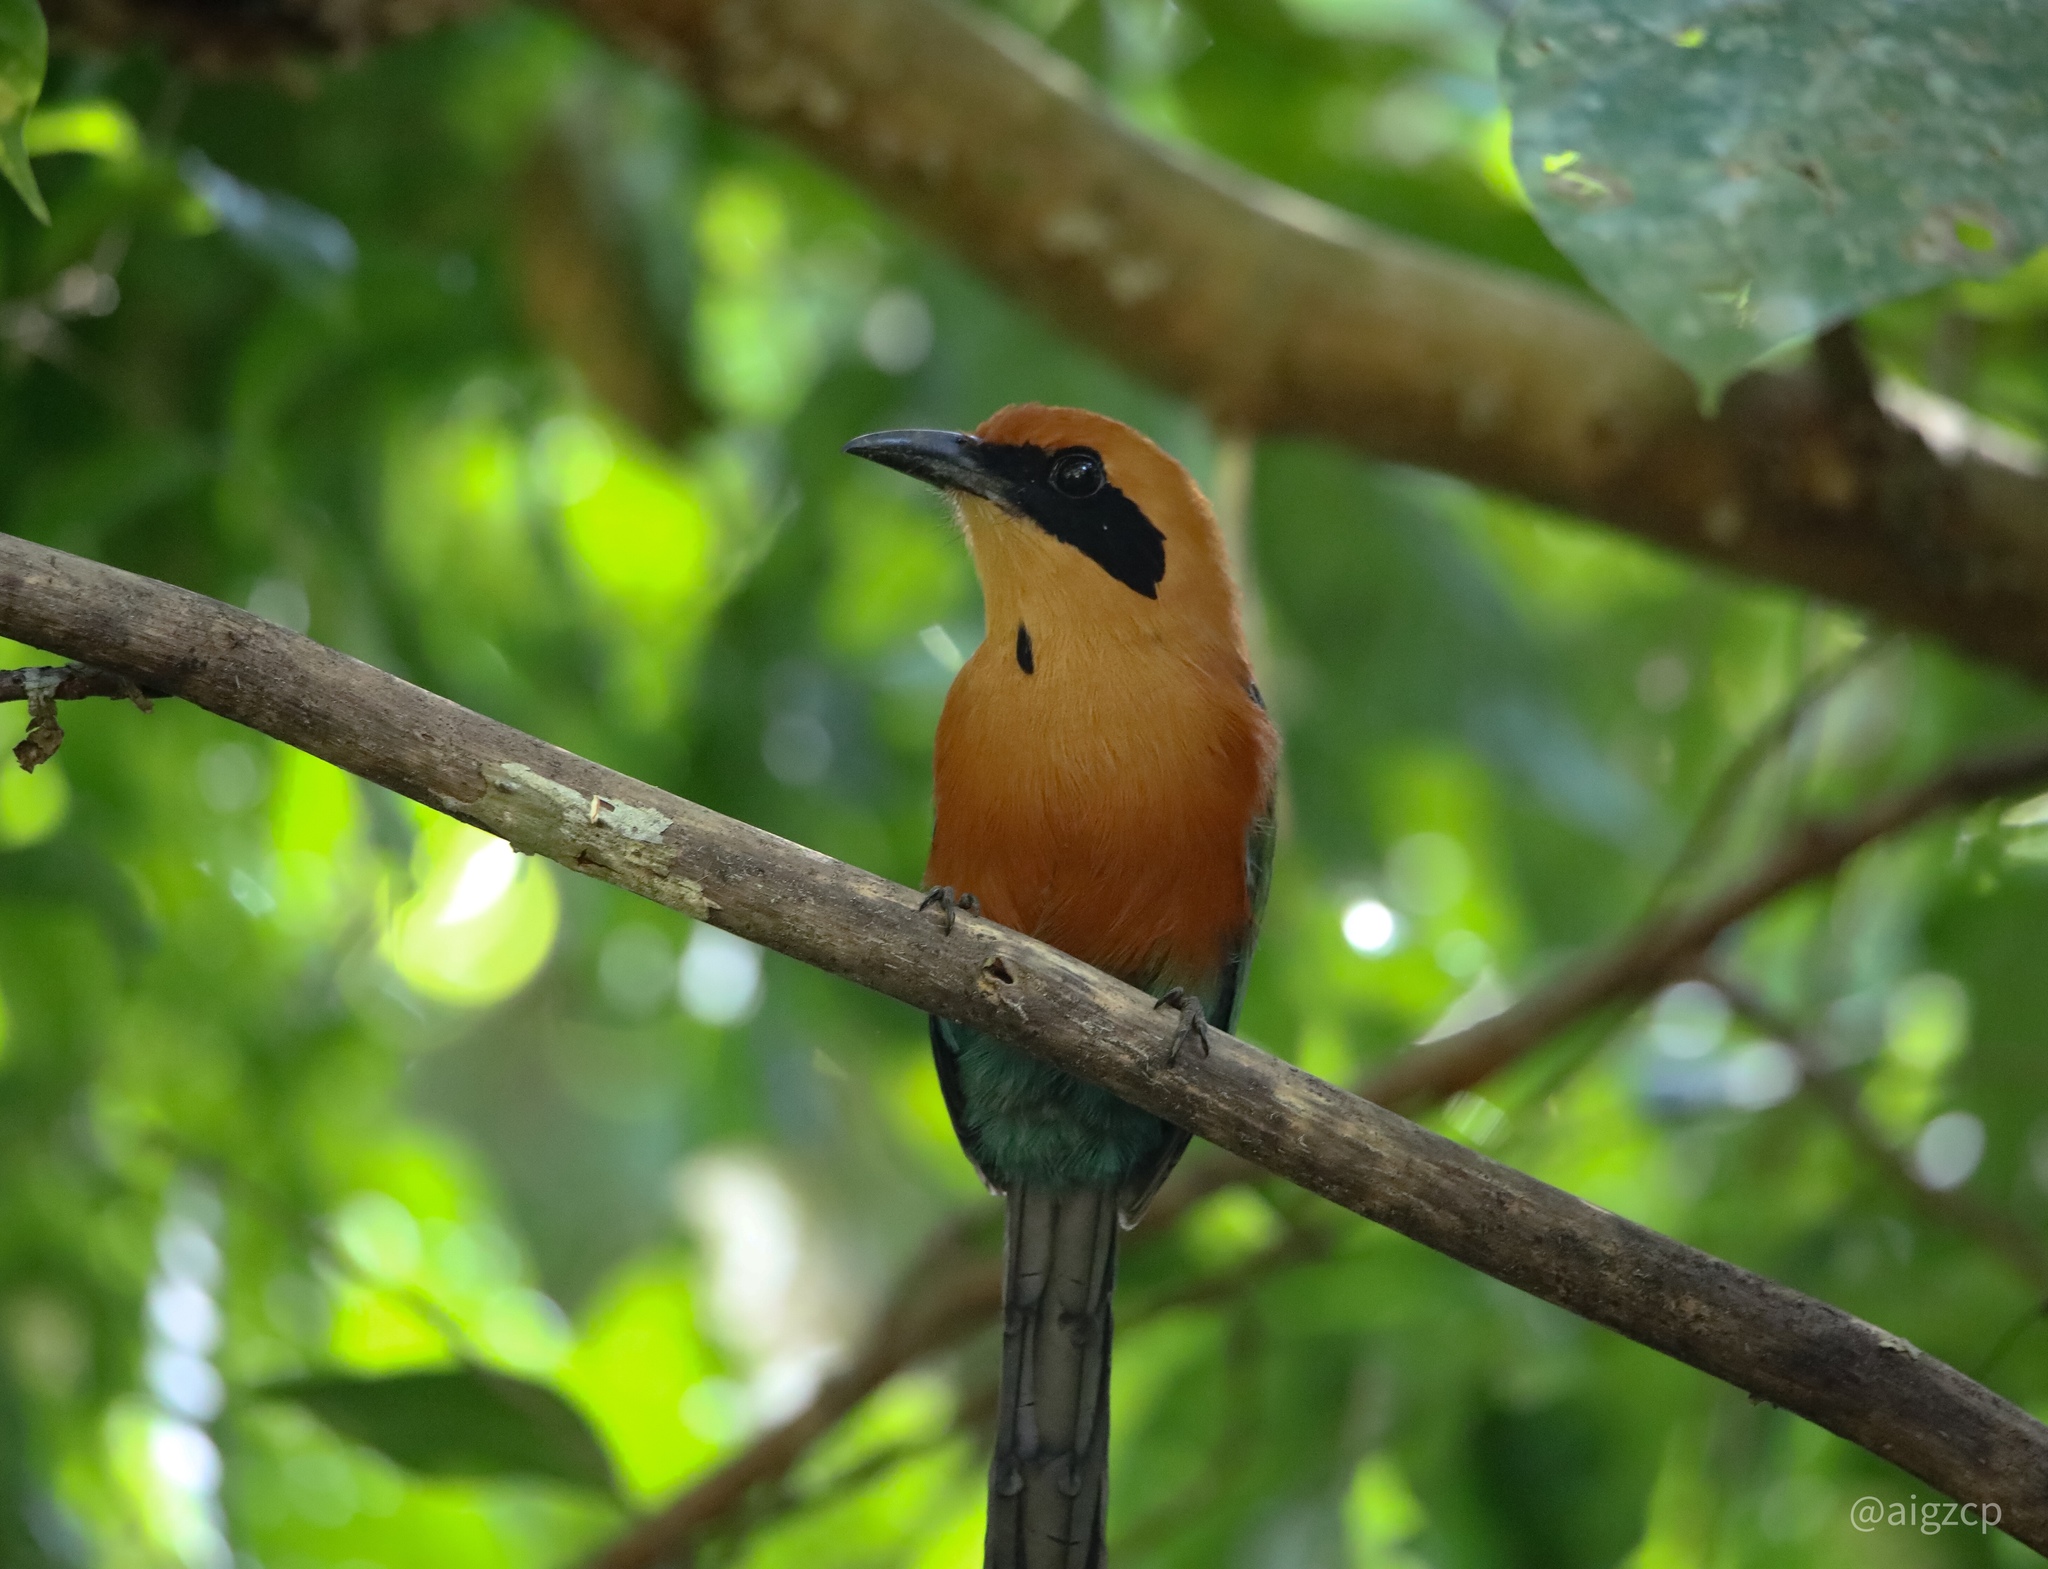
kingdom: Animalia
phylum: Chordata
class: Aves
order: Coraciiformes
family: Momotidae
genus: Baryphthengus
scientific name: Baryphthengus martii
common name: Rufous motmot
